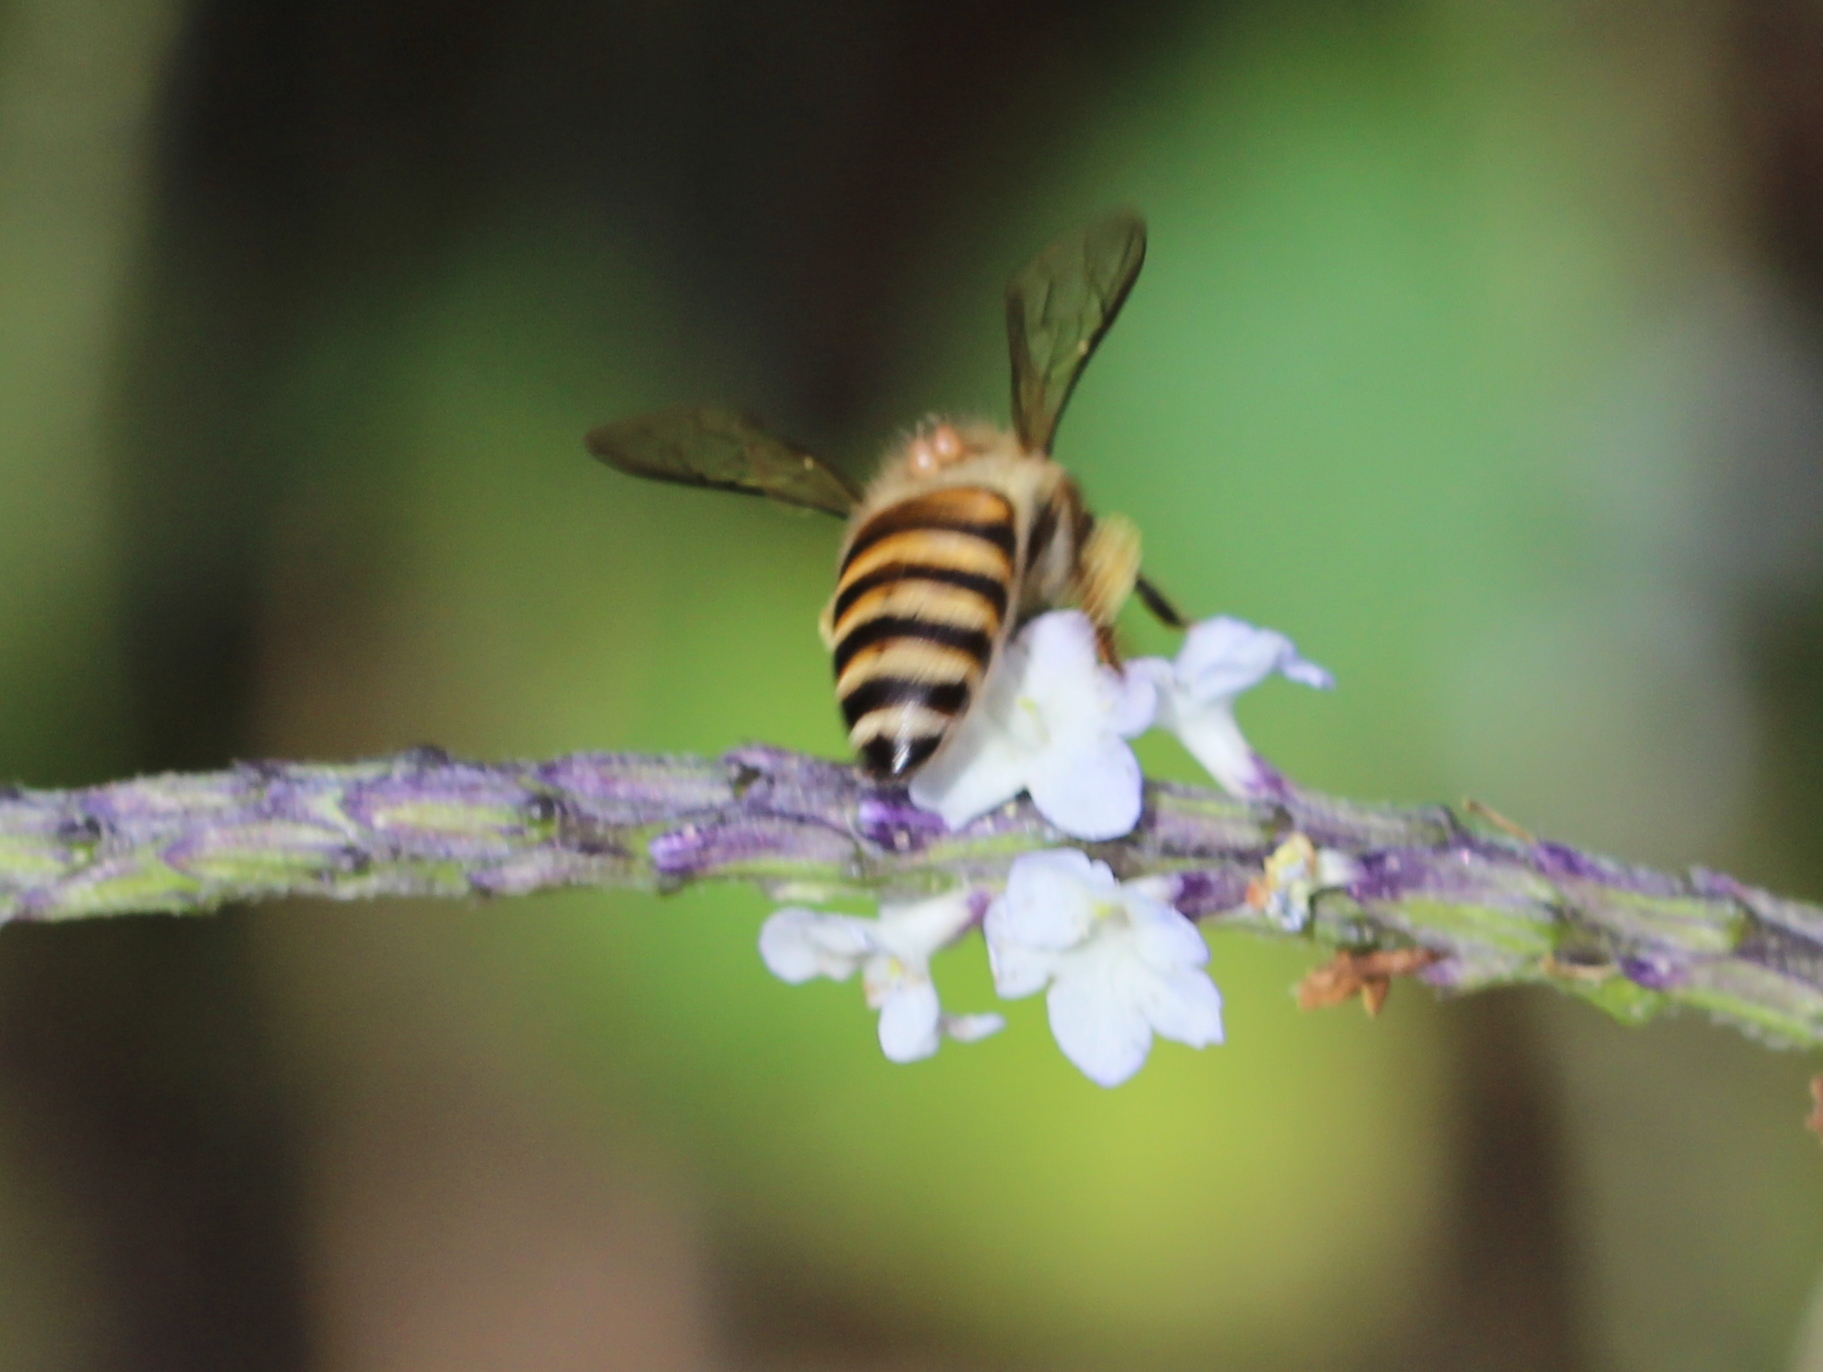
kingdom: Animalia
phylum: Arthropoda
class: Insecta
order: Hymenoptera
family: Apidae
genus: Apis
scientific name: Apis cerana
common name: Honey bee
